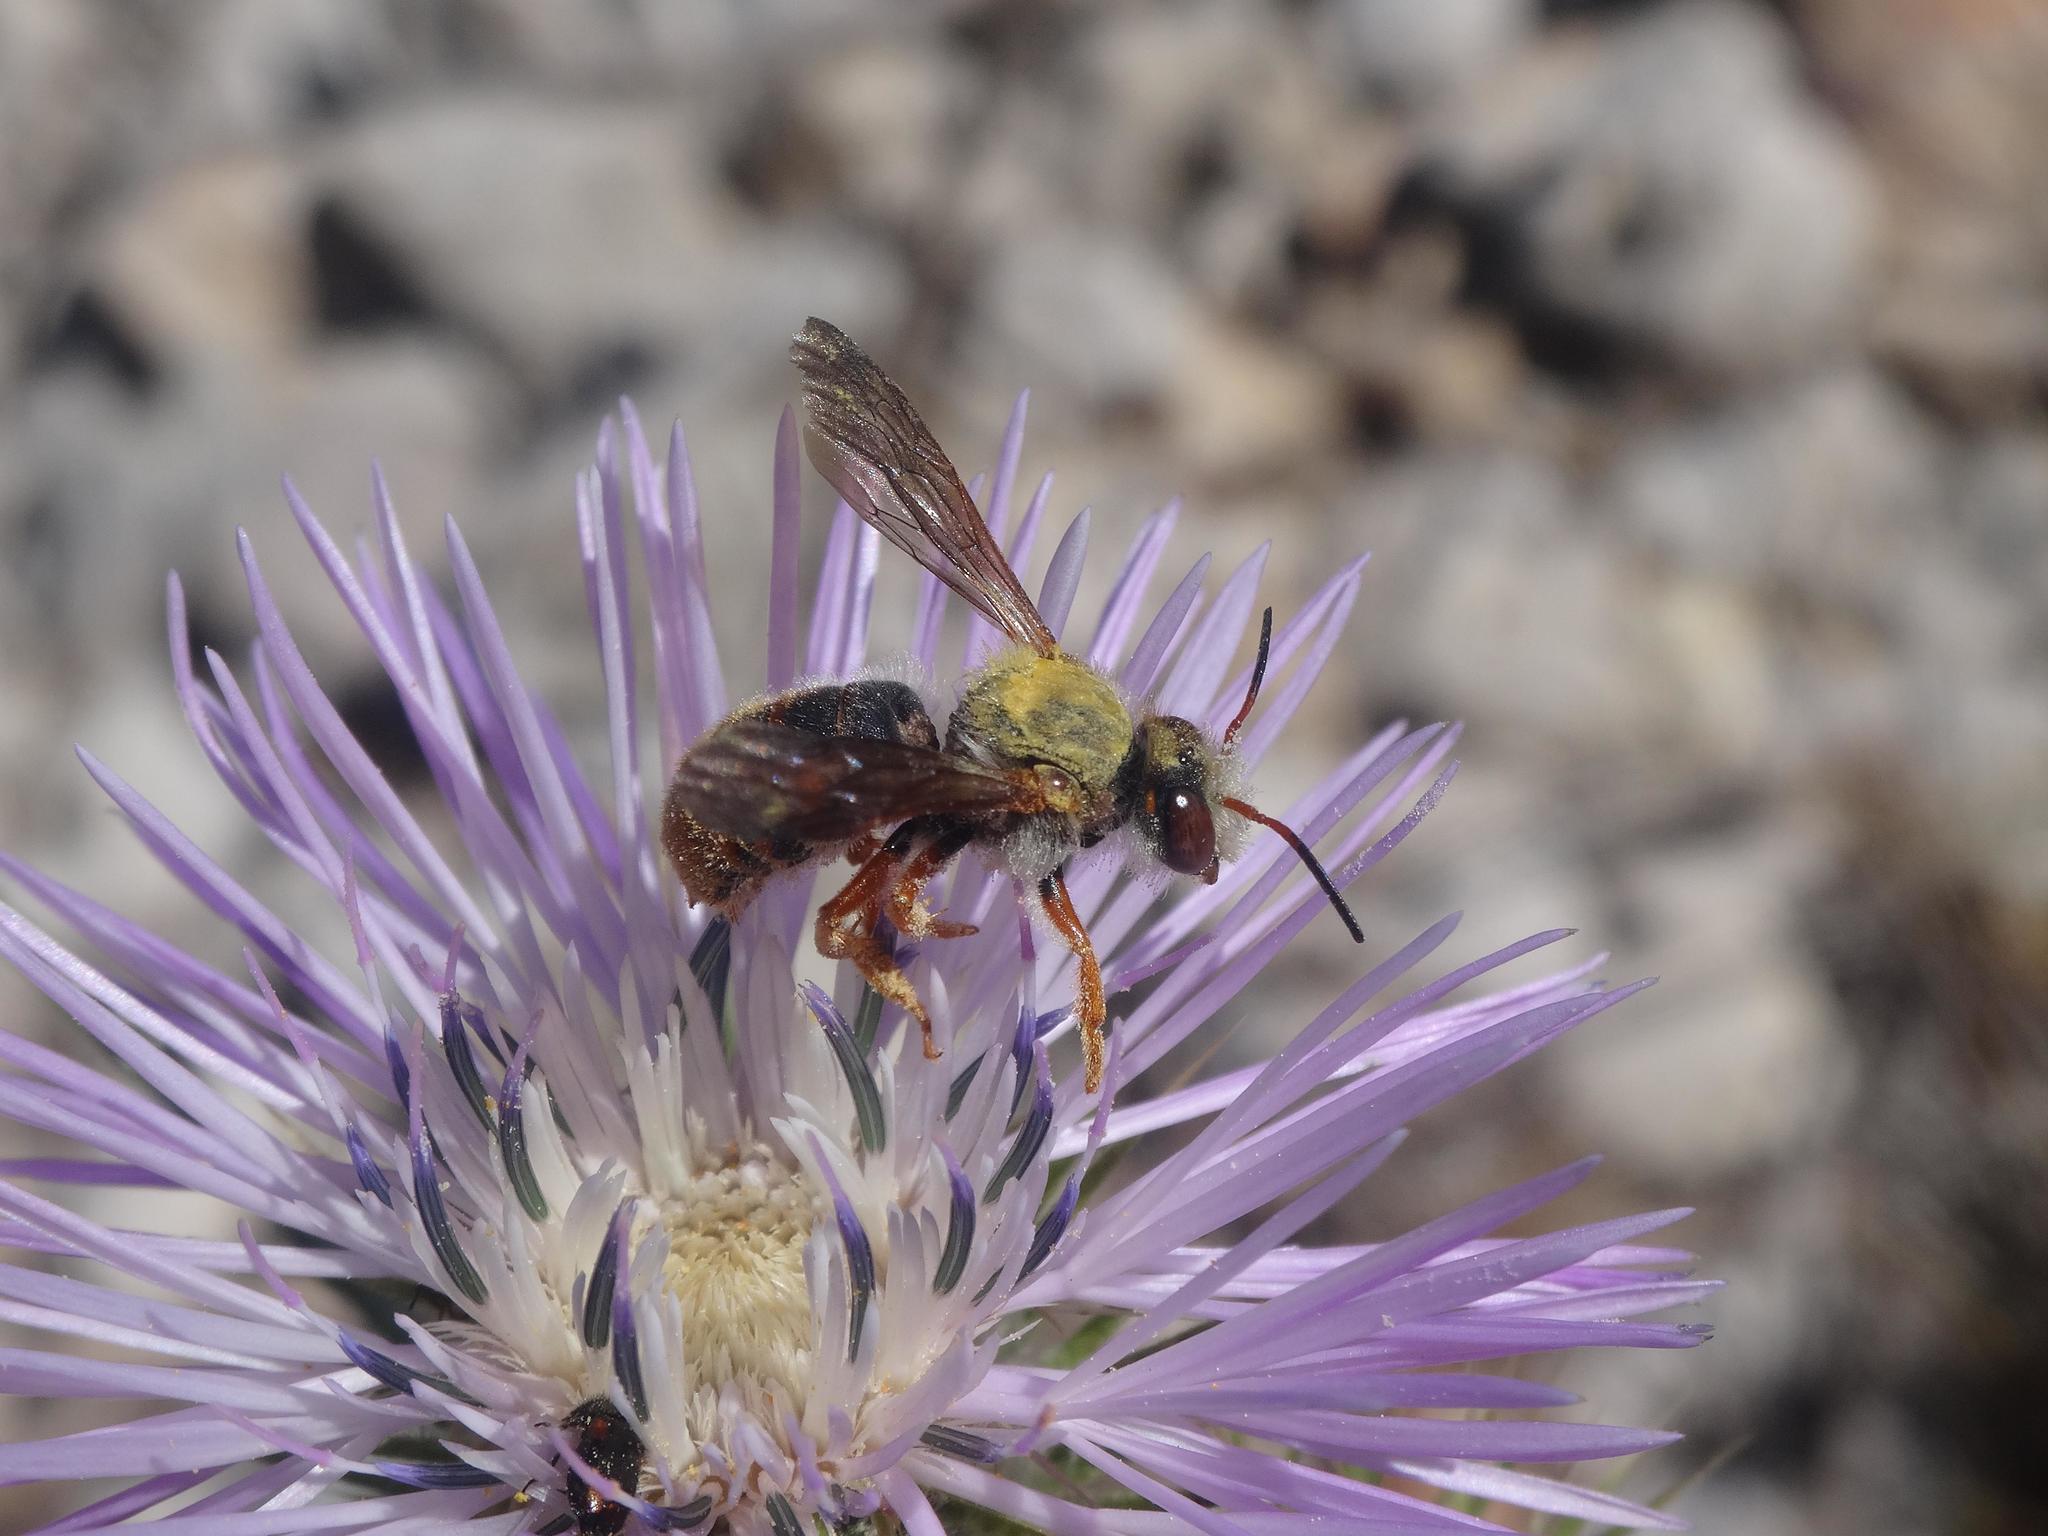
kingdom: Animalia
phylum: Arthropoda
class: Insecta
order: Hymenoptera
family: Megachilidae
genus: Rhodanthidium
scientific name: Rhodanthidium sticticum
